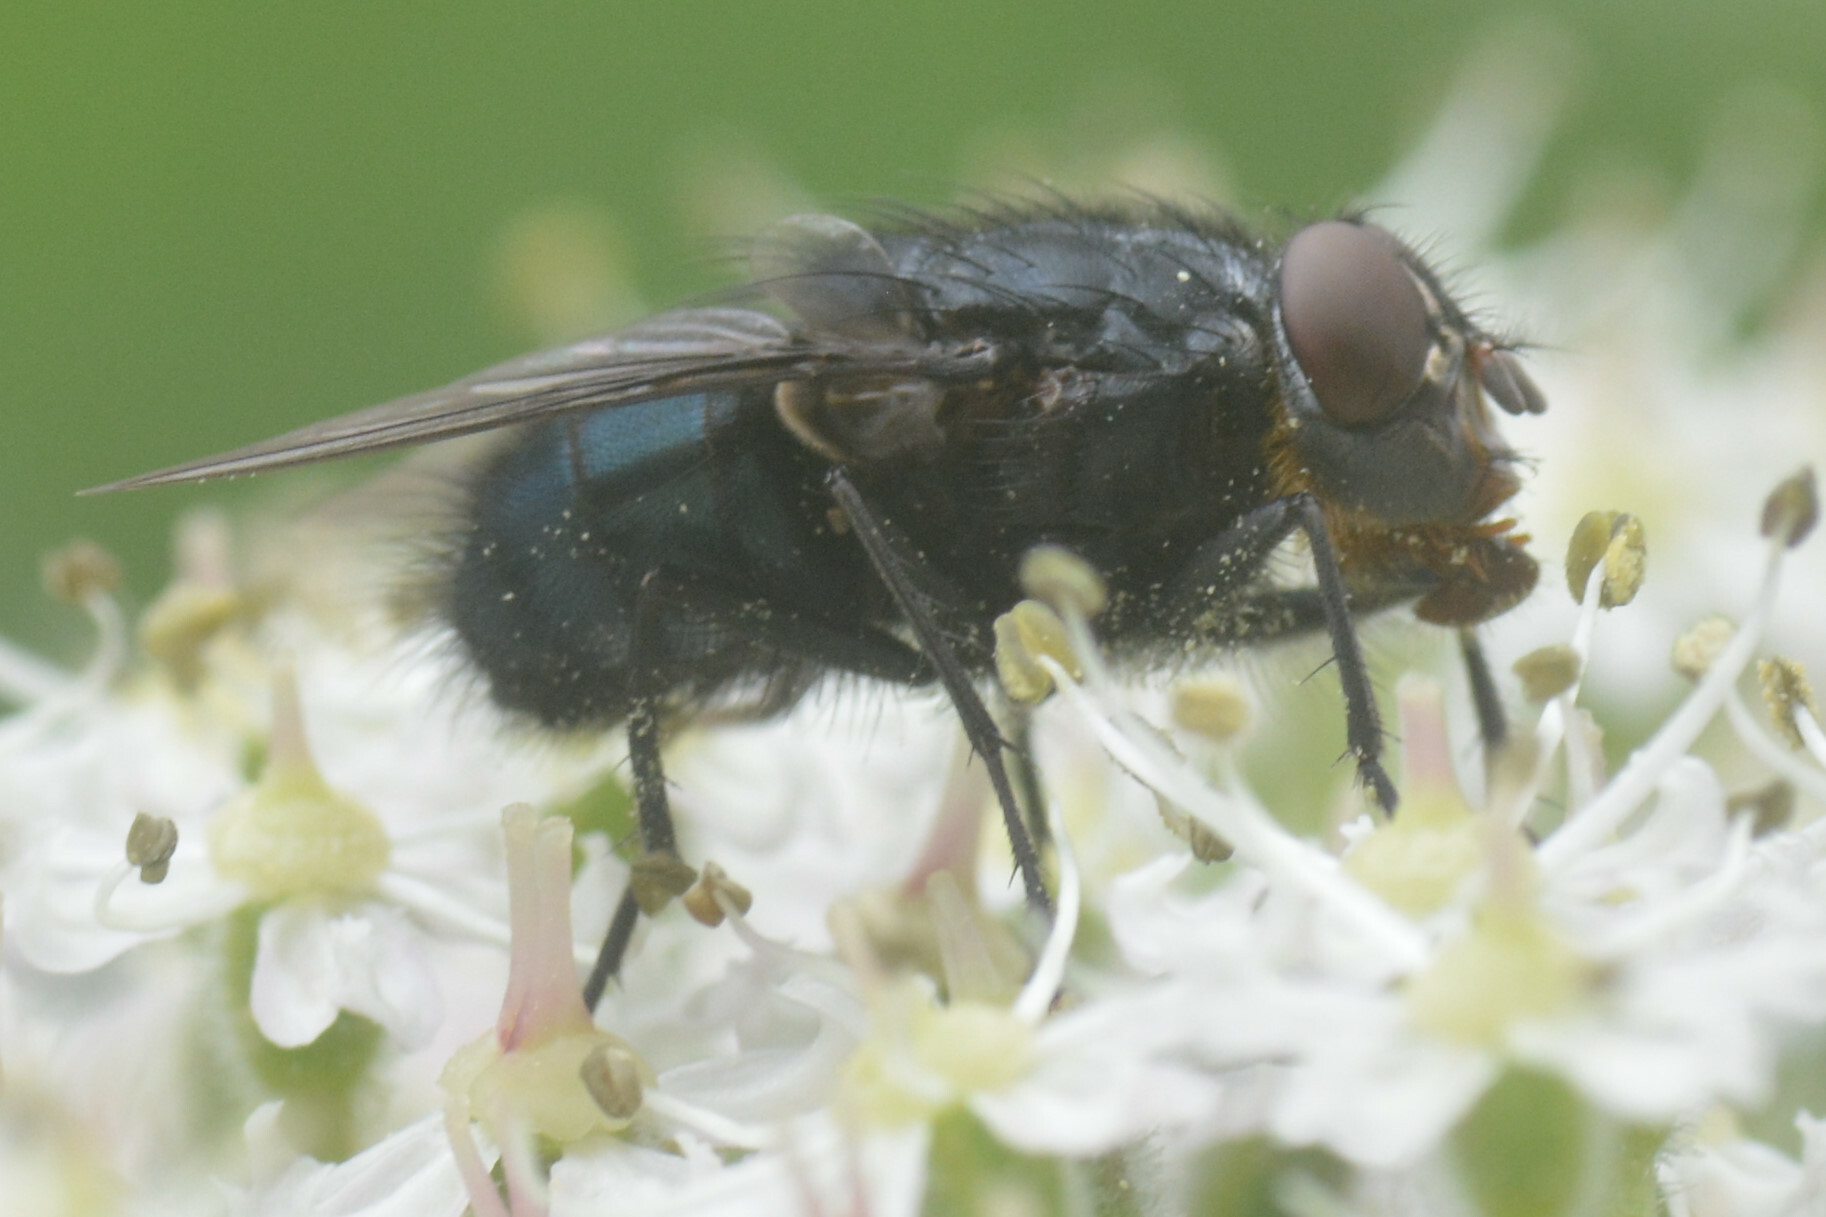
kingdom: Animalia
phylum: Arthropoda
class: Insecta
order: Diptera
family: Calliphoridae
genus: Calliphora
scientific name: Calliphora vomitoria
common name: Blue bottle fly
